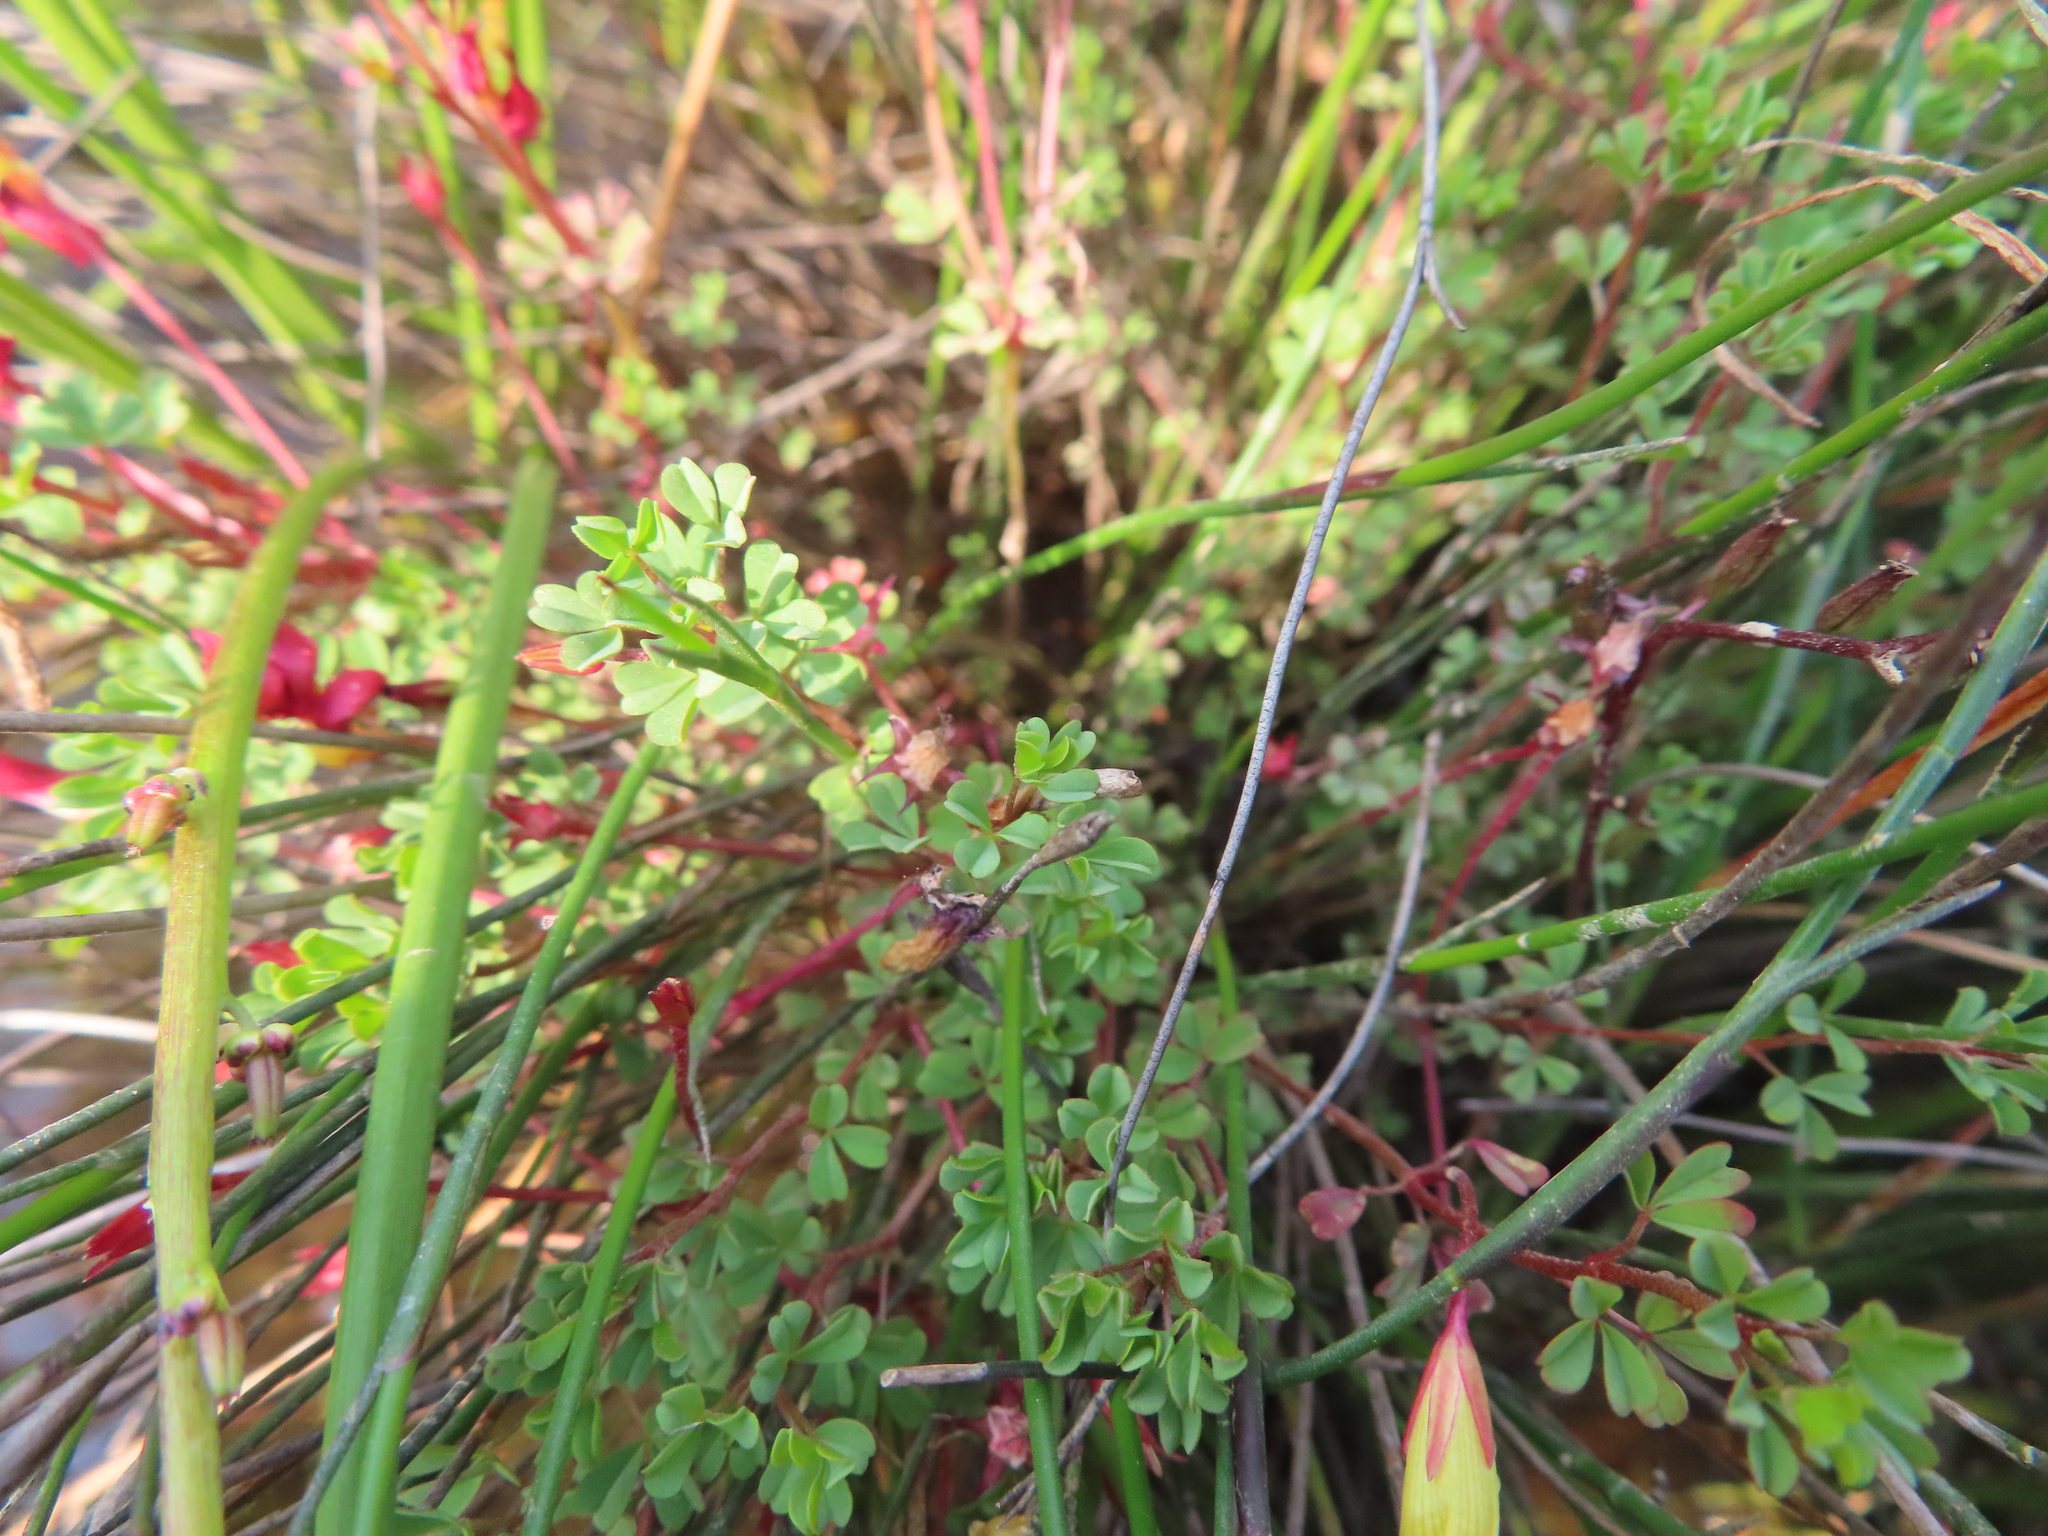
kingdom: Plantae
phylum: Tracheophyta
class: Magnoliopsida
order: Oxalidales
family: Oxalidaceae
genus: Oxalis
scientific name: Oxalis goniorhiza
